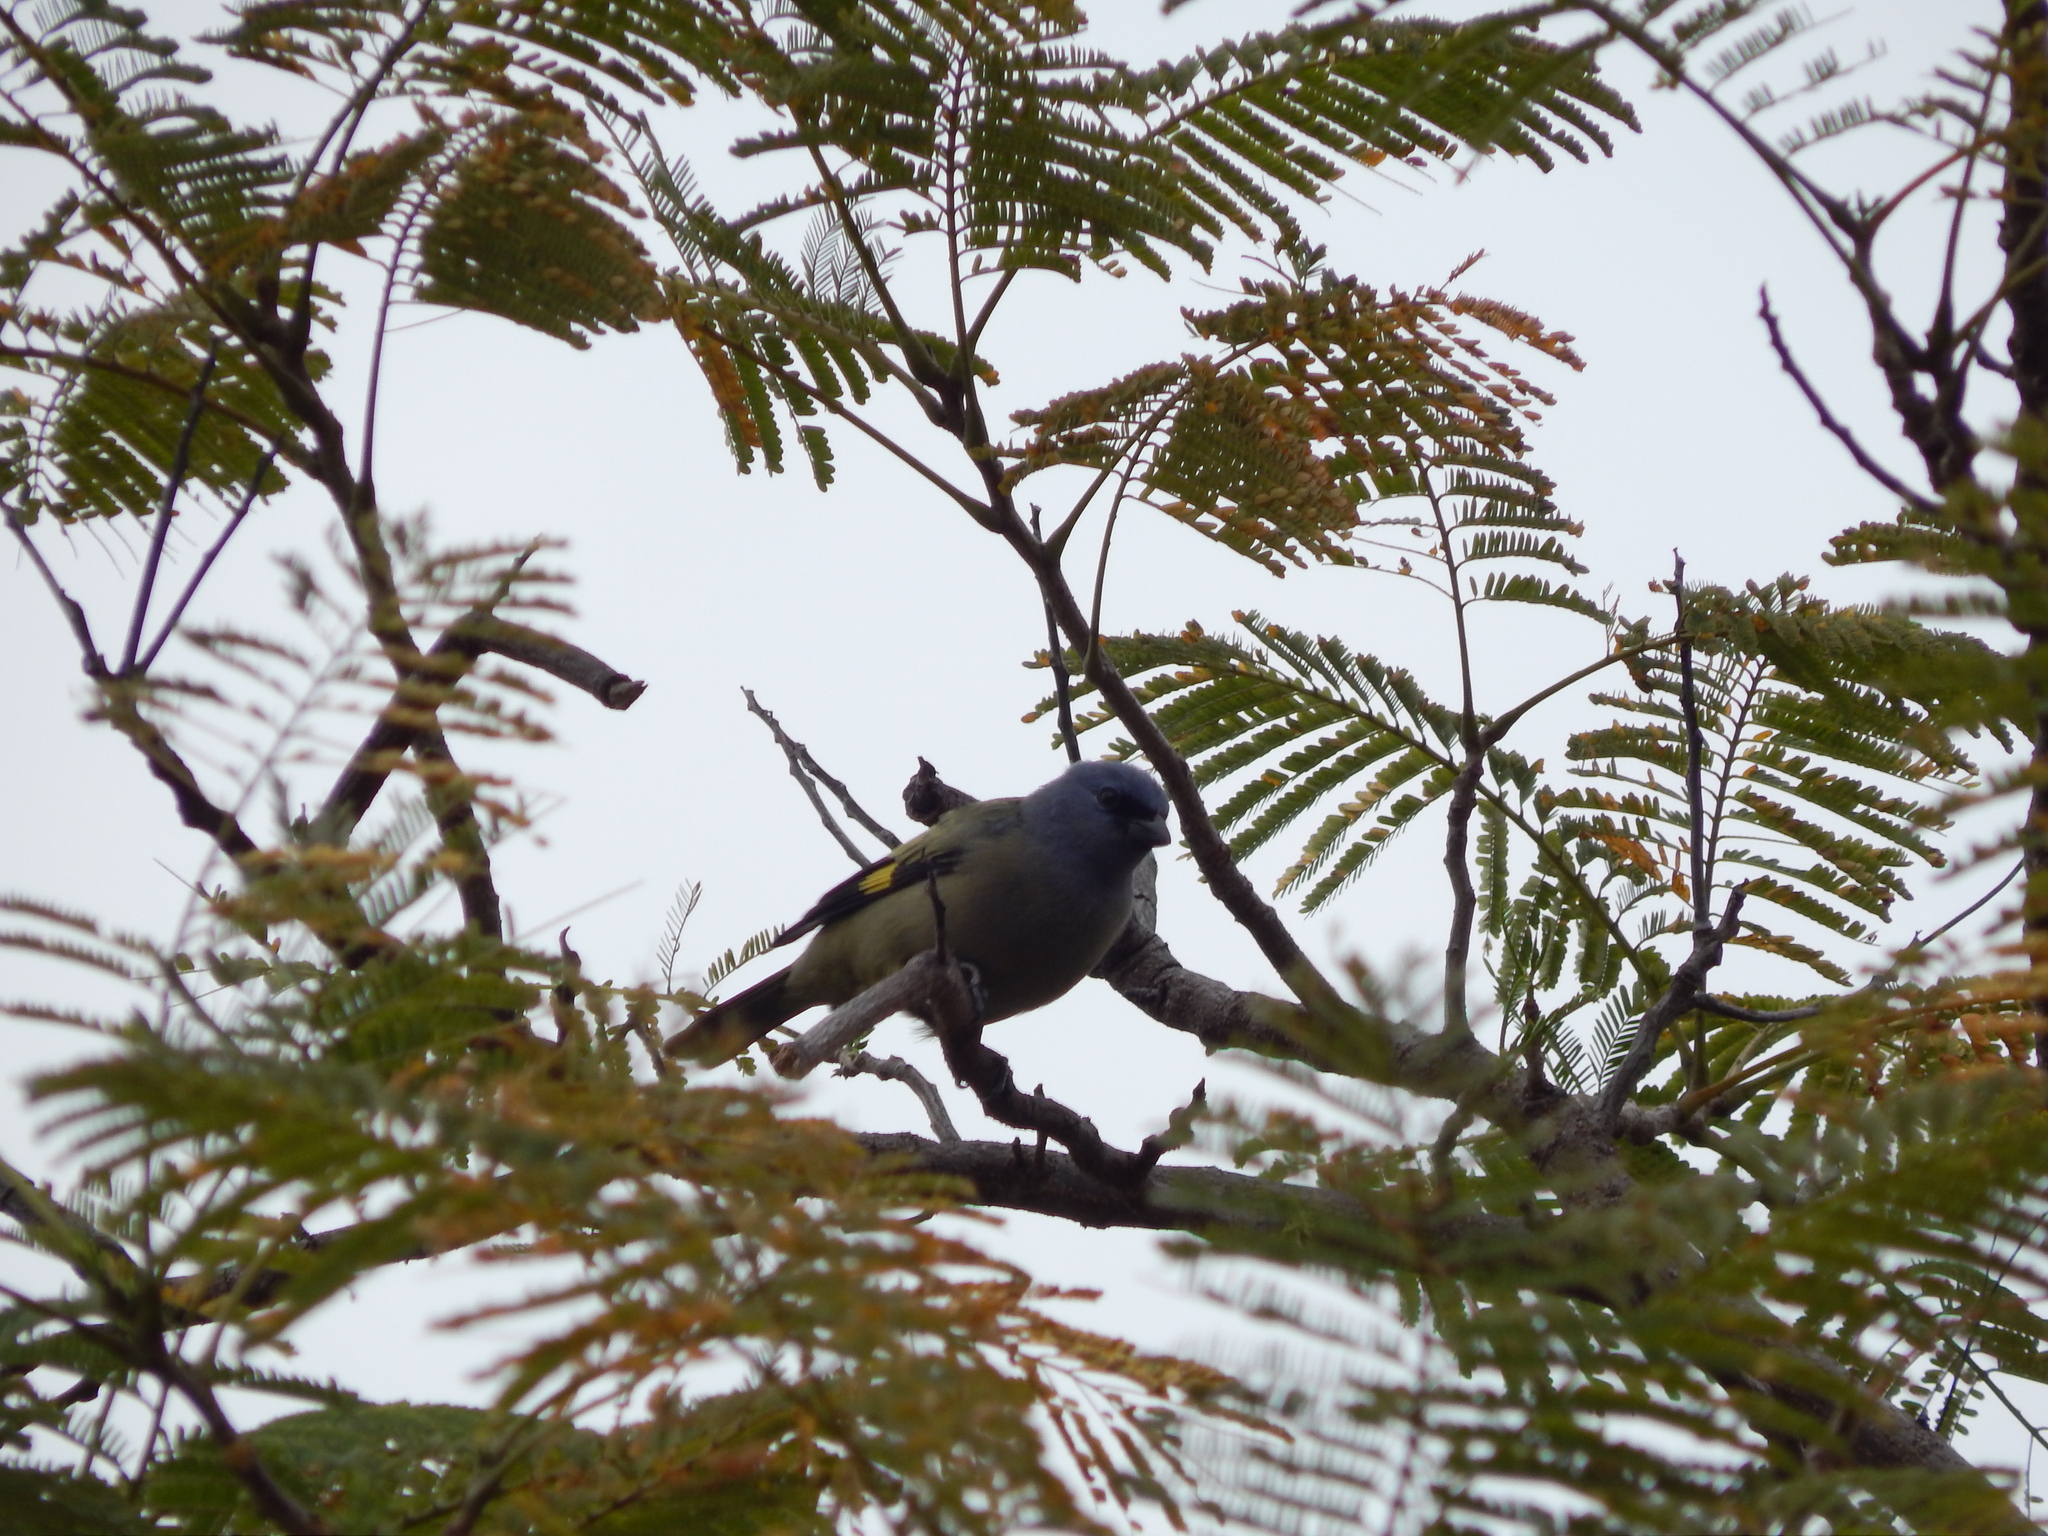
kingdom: Animalia
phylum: Chordata
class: Aves
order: Passeriformes
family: Thraupidae
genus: Thraupis
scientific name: Thraupis abbas
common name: Yellow-winged tanager
